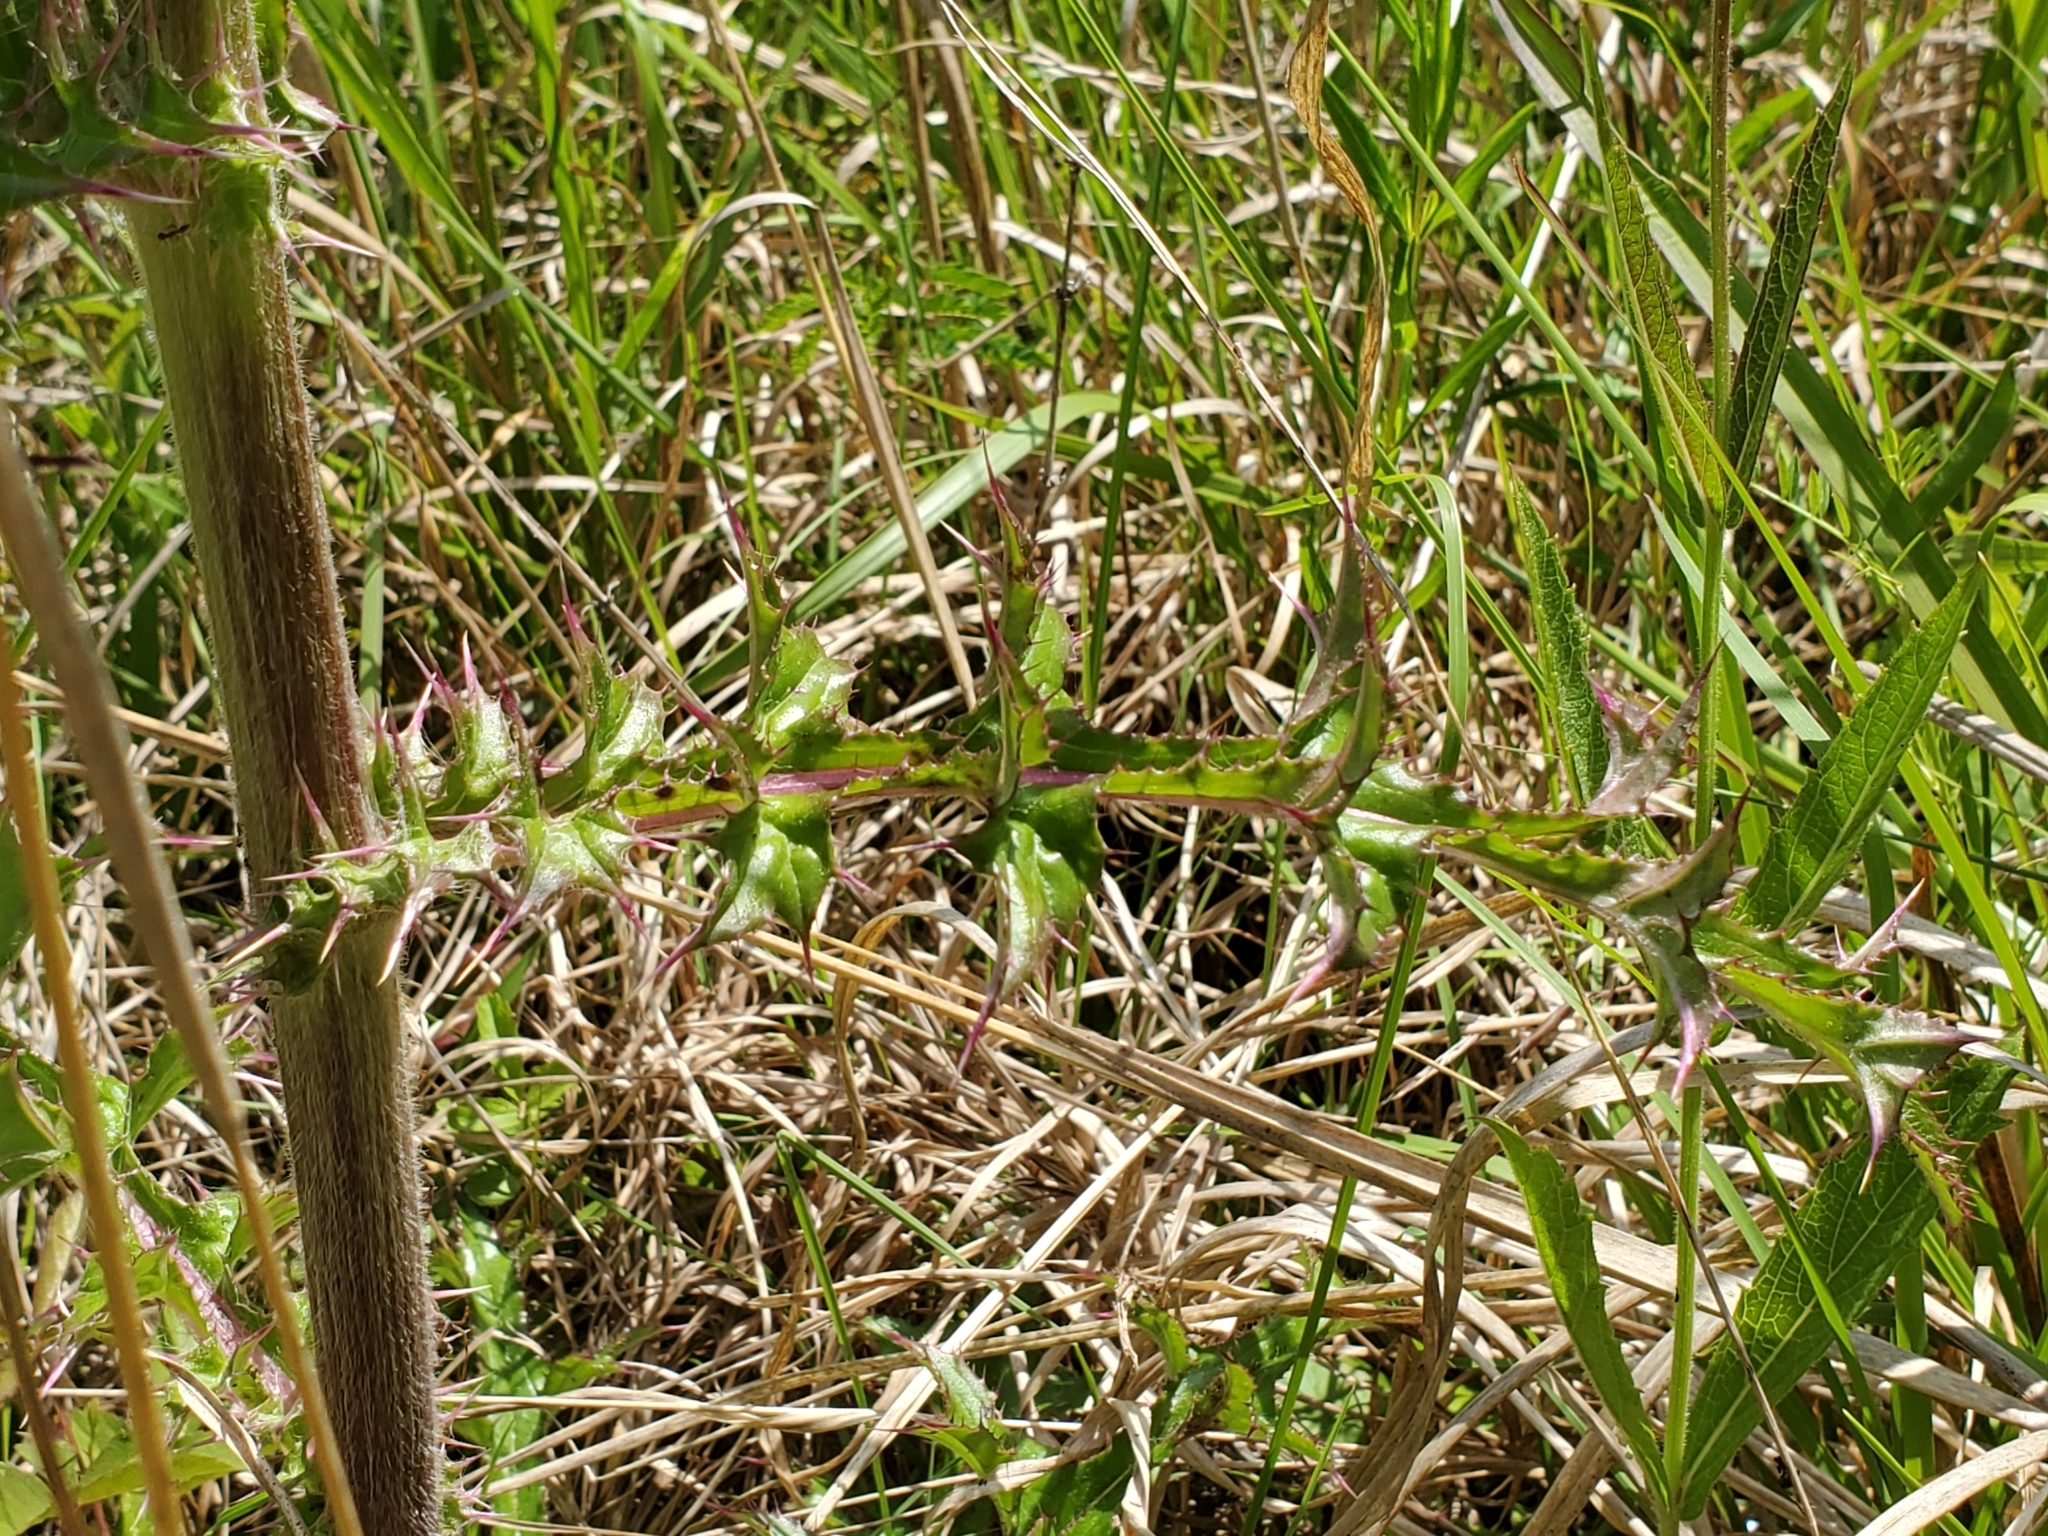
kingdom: Plantae
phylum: Tracheophyta
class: Magnoliopsida
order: Asterales
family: Asteraceae
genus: Cirsium
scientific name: Cirsium horridulum
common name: Bristly thistle
